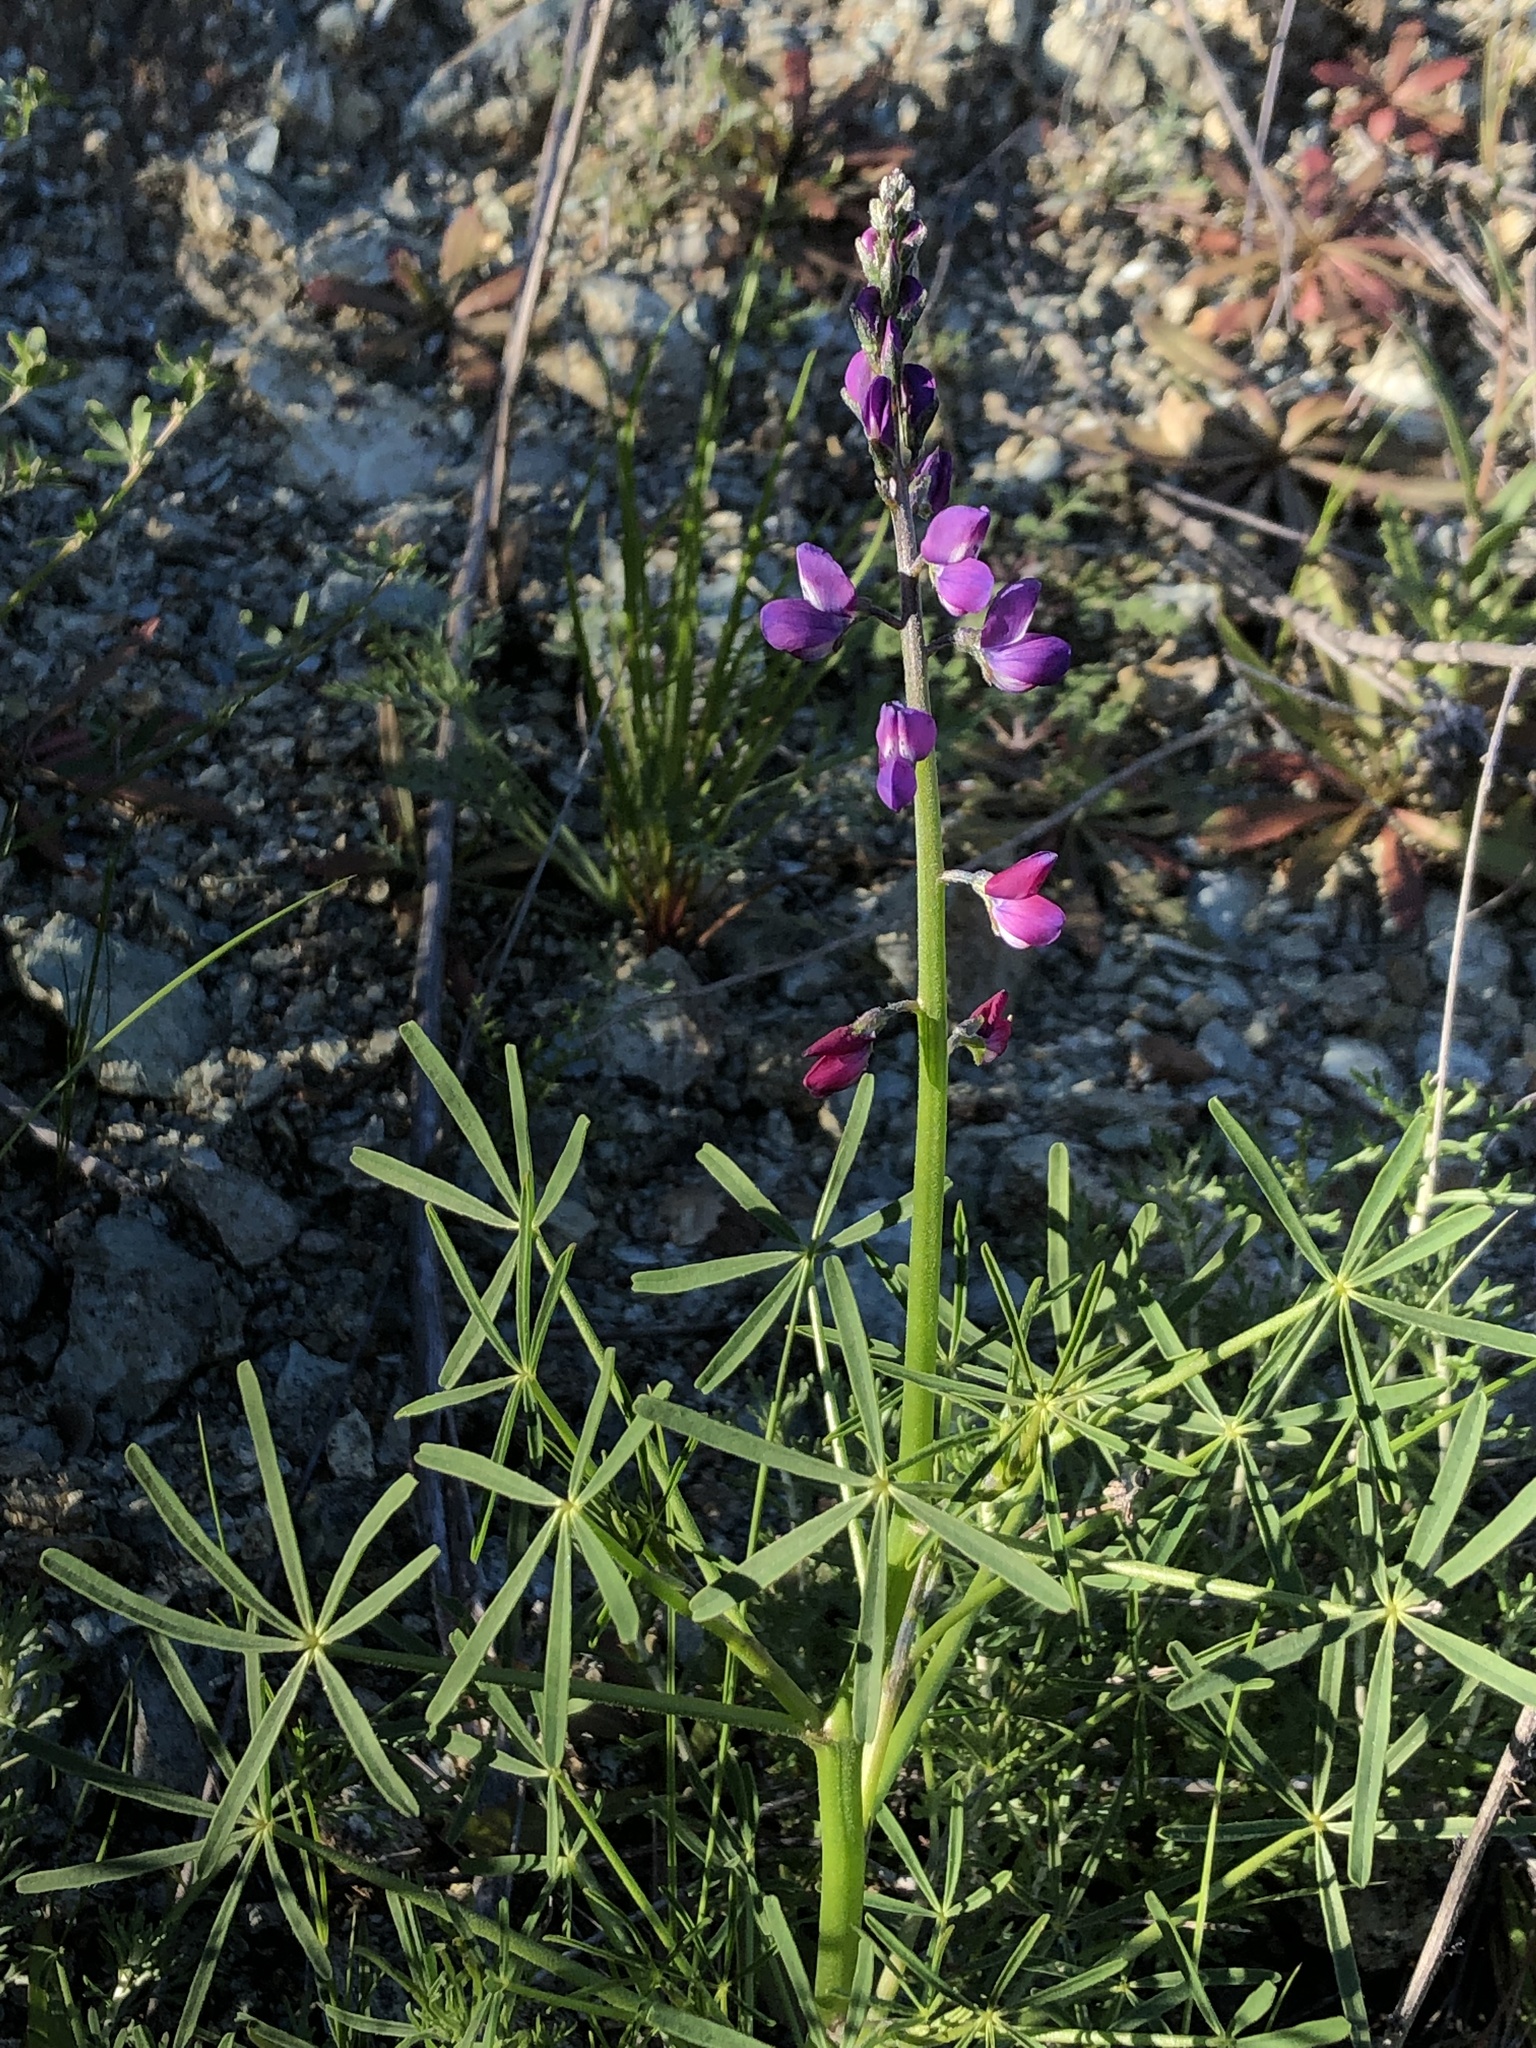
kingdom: Plantae
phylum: Tracheophyta
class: Magnoliopsida
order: Fabales
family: Fabaceae
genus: Lupinus
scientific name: Lupinus truncatus
